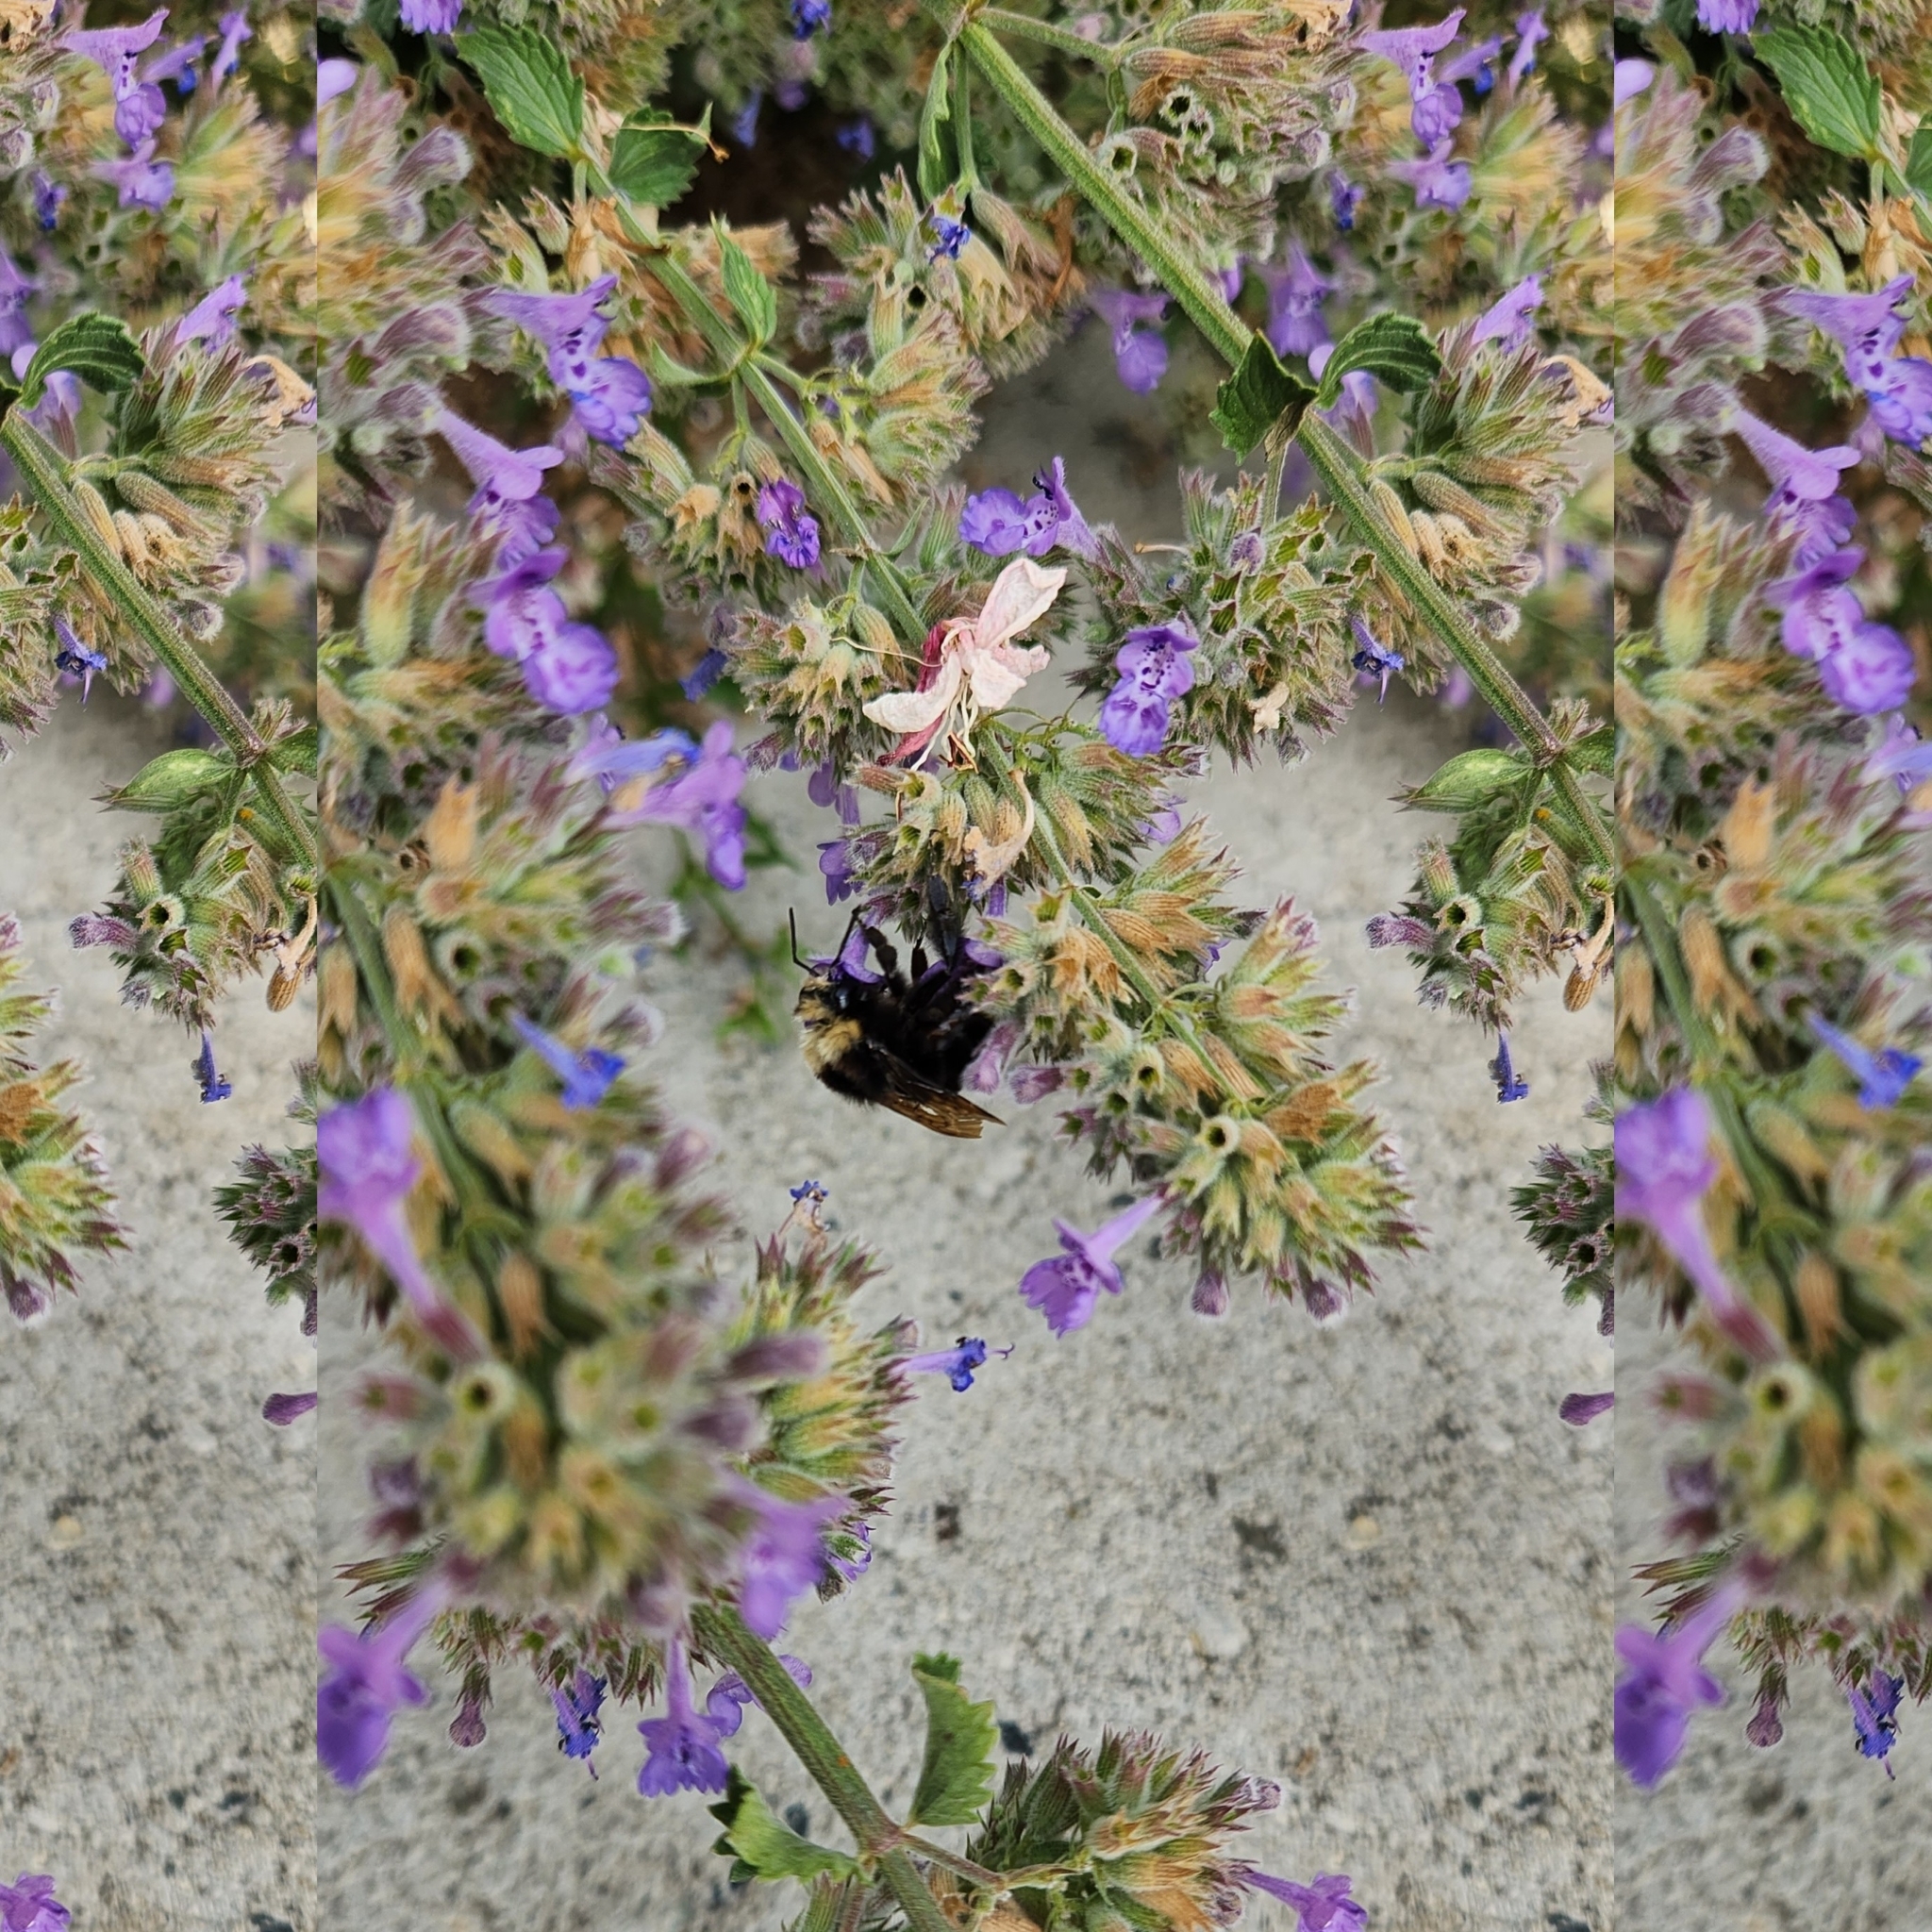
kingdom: Animalia
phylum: Arthropoda
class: Insecta
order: Hymenoptera
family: Apidae
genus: Bombus
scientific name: Bombus vosnesenskii
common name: Vosnesensky bumble bee
